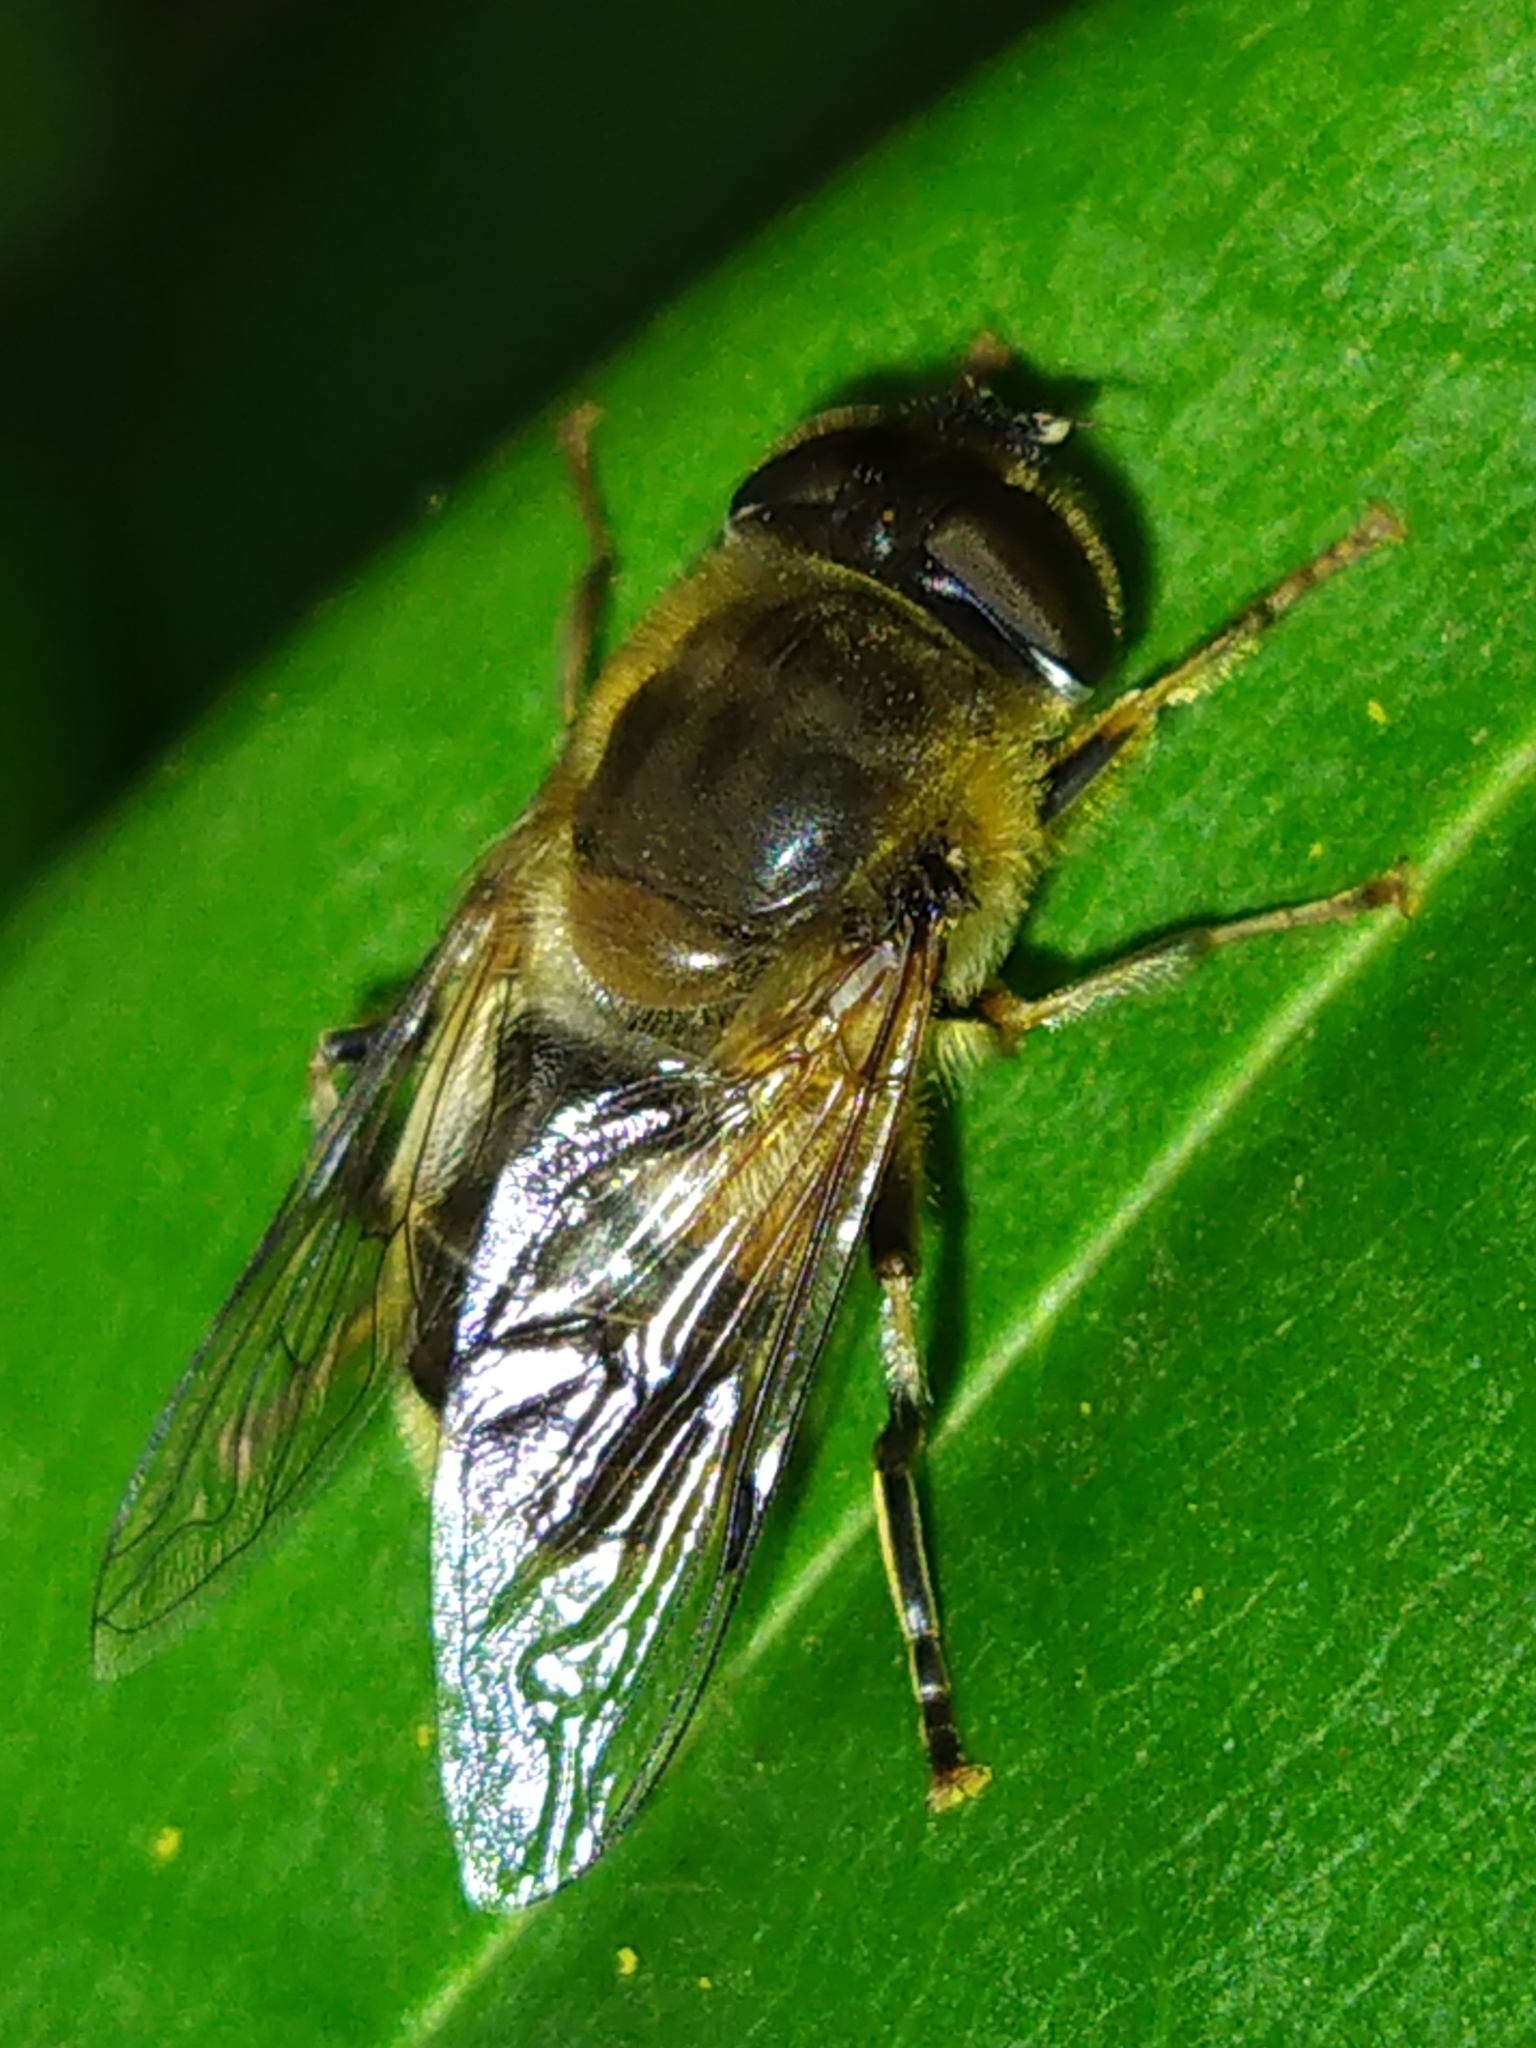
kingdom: Animalia
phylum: Arthropoda
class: Insecta
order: Diptera
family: Syrphidae
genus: Eristalis
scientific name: Eristalis pertinax
